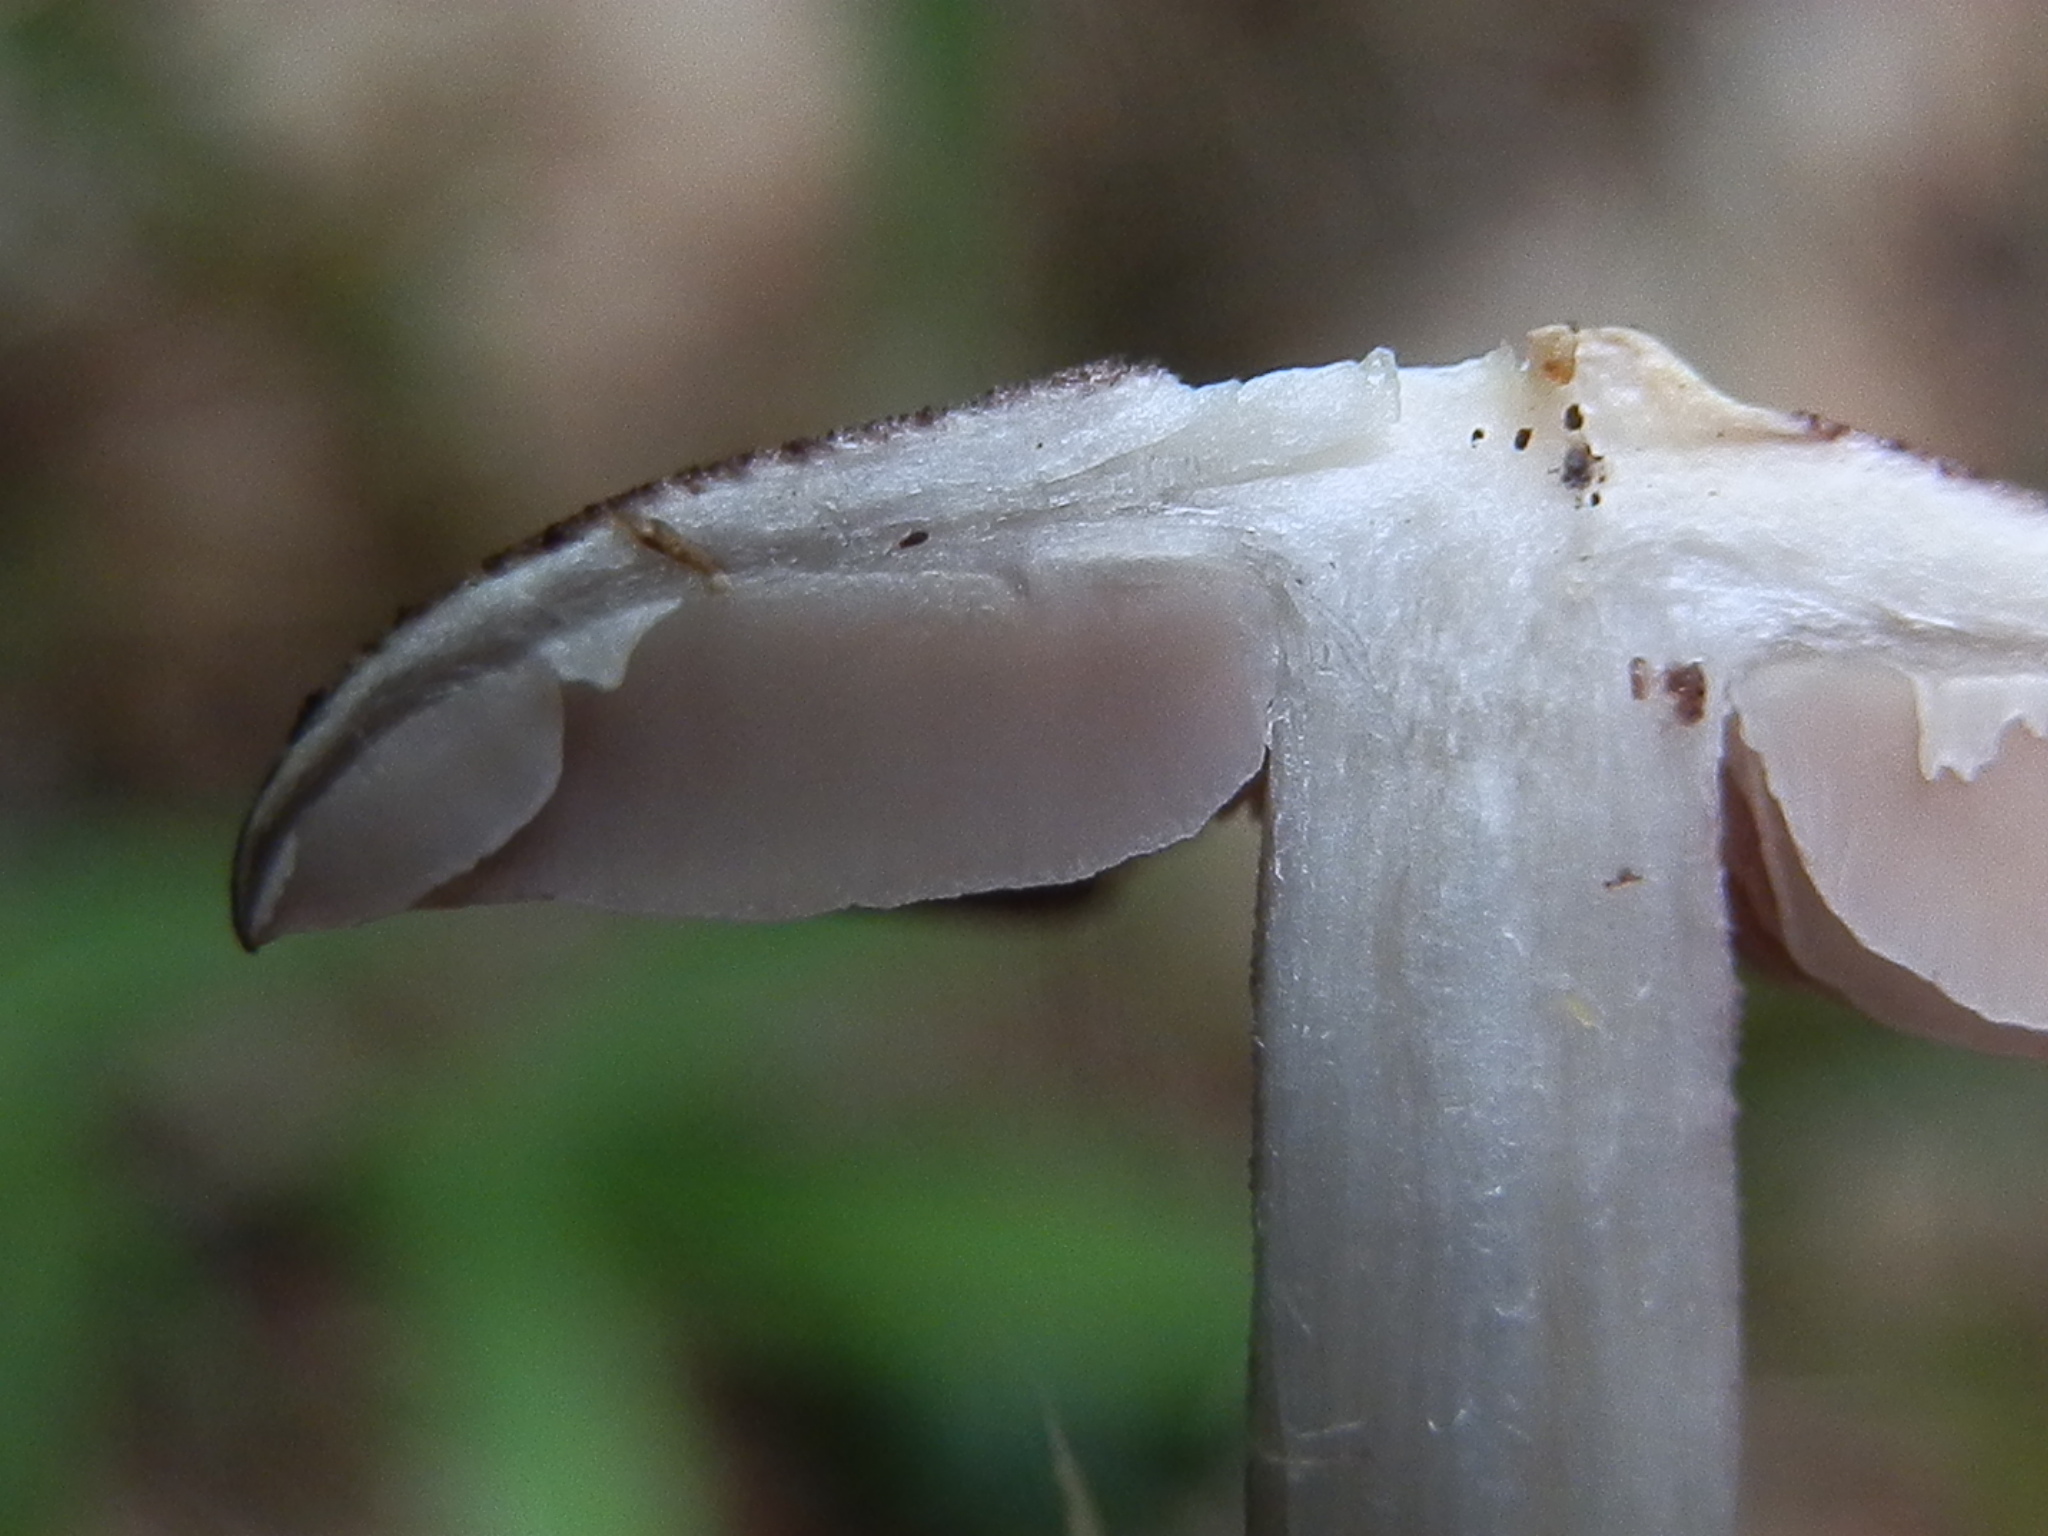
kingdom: Fungi
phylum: Basidiomycota
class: Agaricomycetes
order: Agaricales
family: Entolomataceae
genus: Entoloma
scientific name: Entoloma cyaneum
